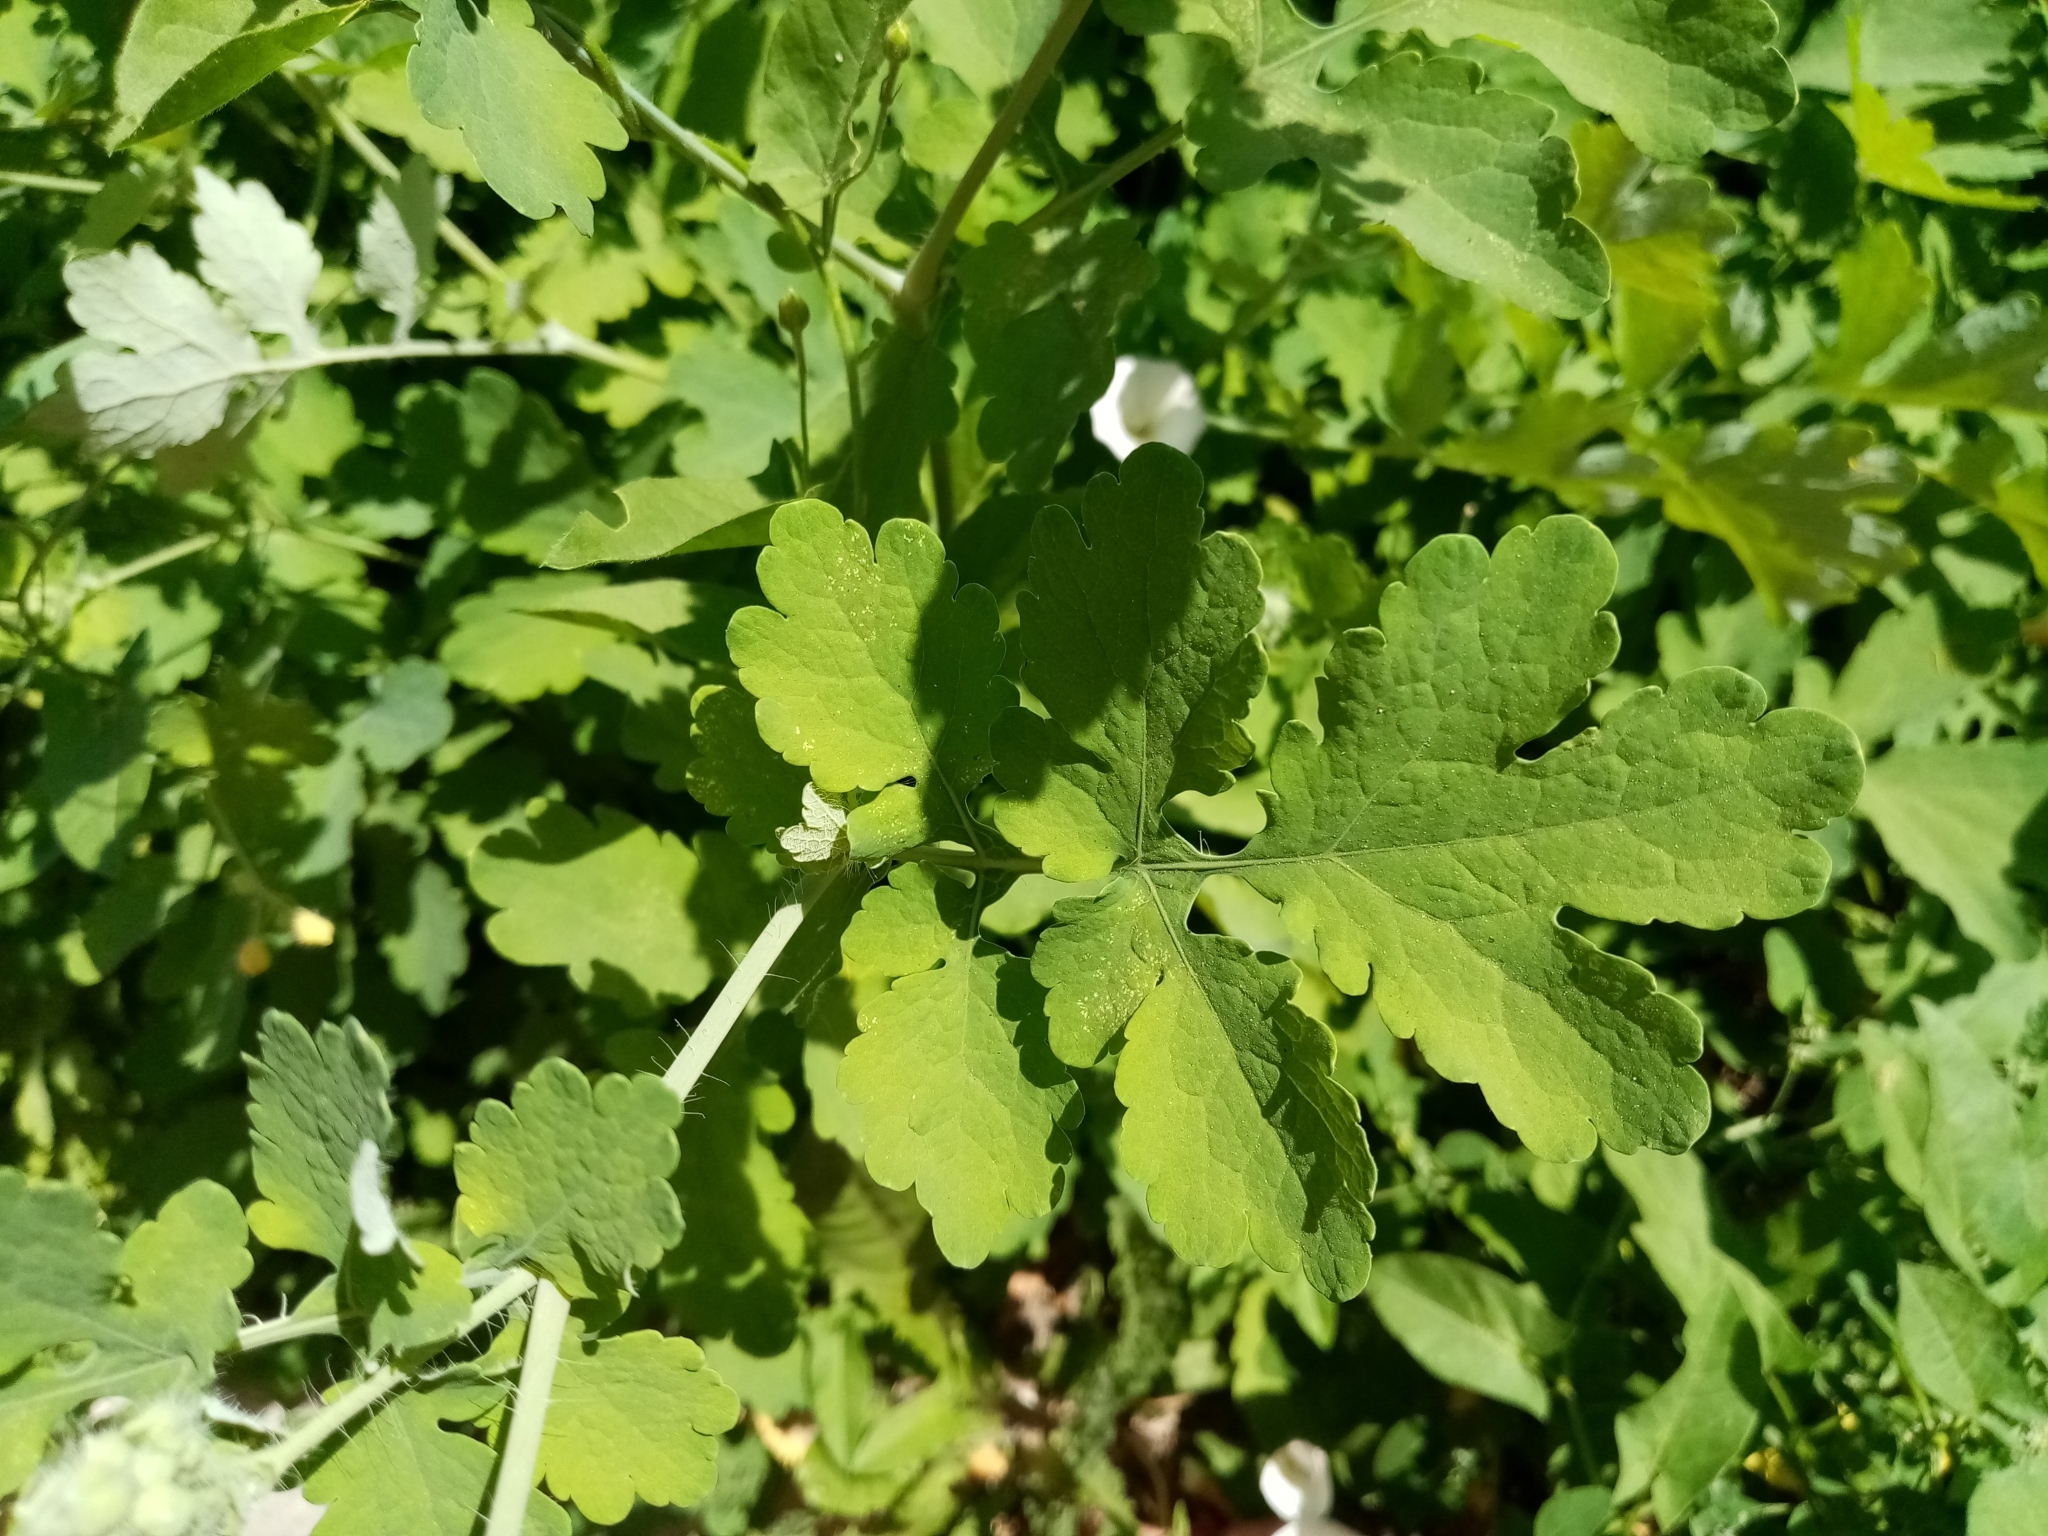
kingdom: Plantae
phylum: Tracheophyta
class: Magnoliopsida
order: Ranunculales
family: Papaveraceae
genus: Chelidonium
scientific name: Chelidonium majus
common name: Greater celandine
